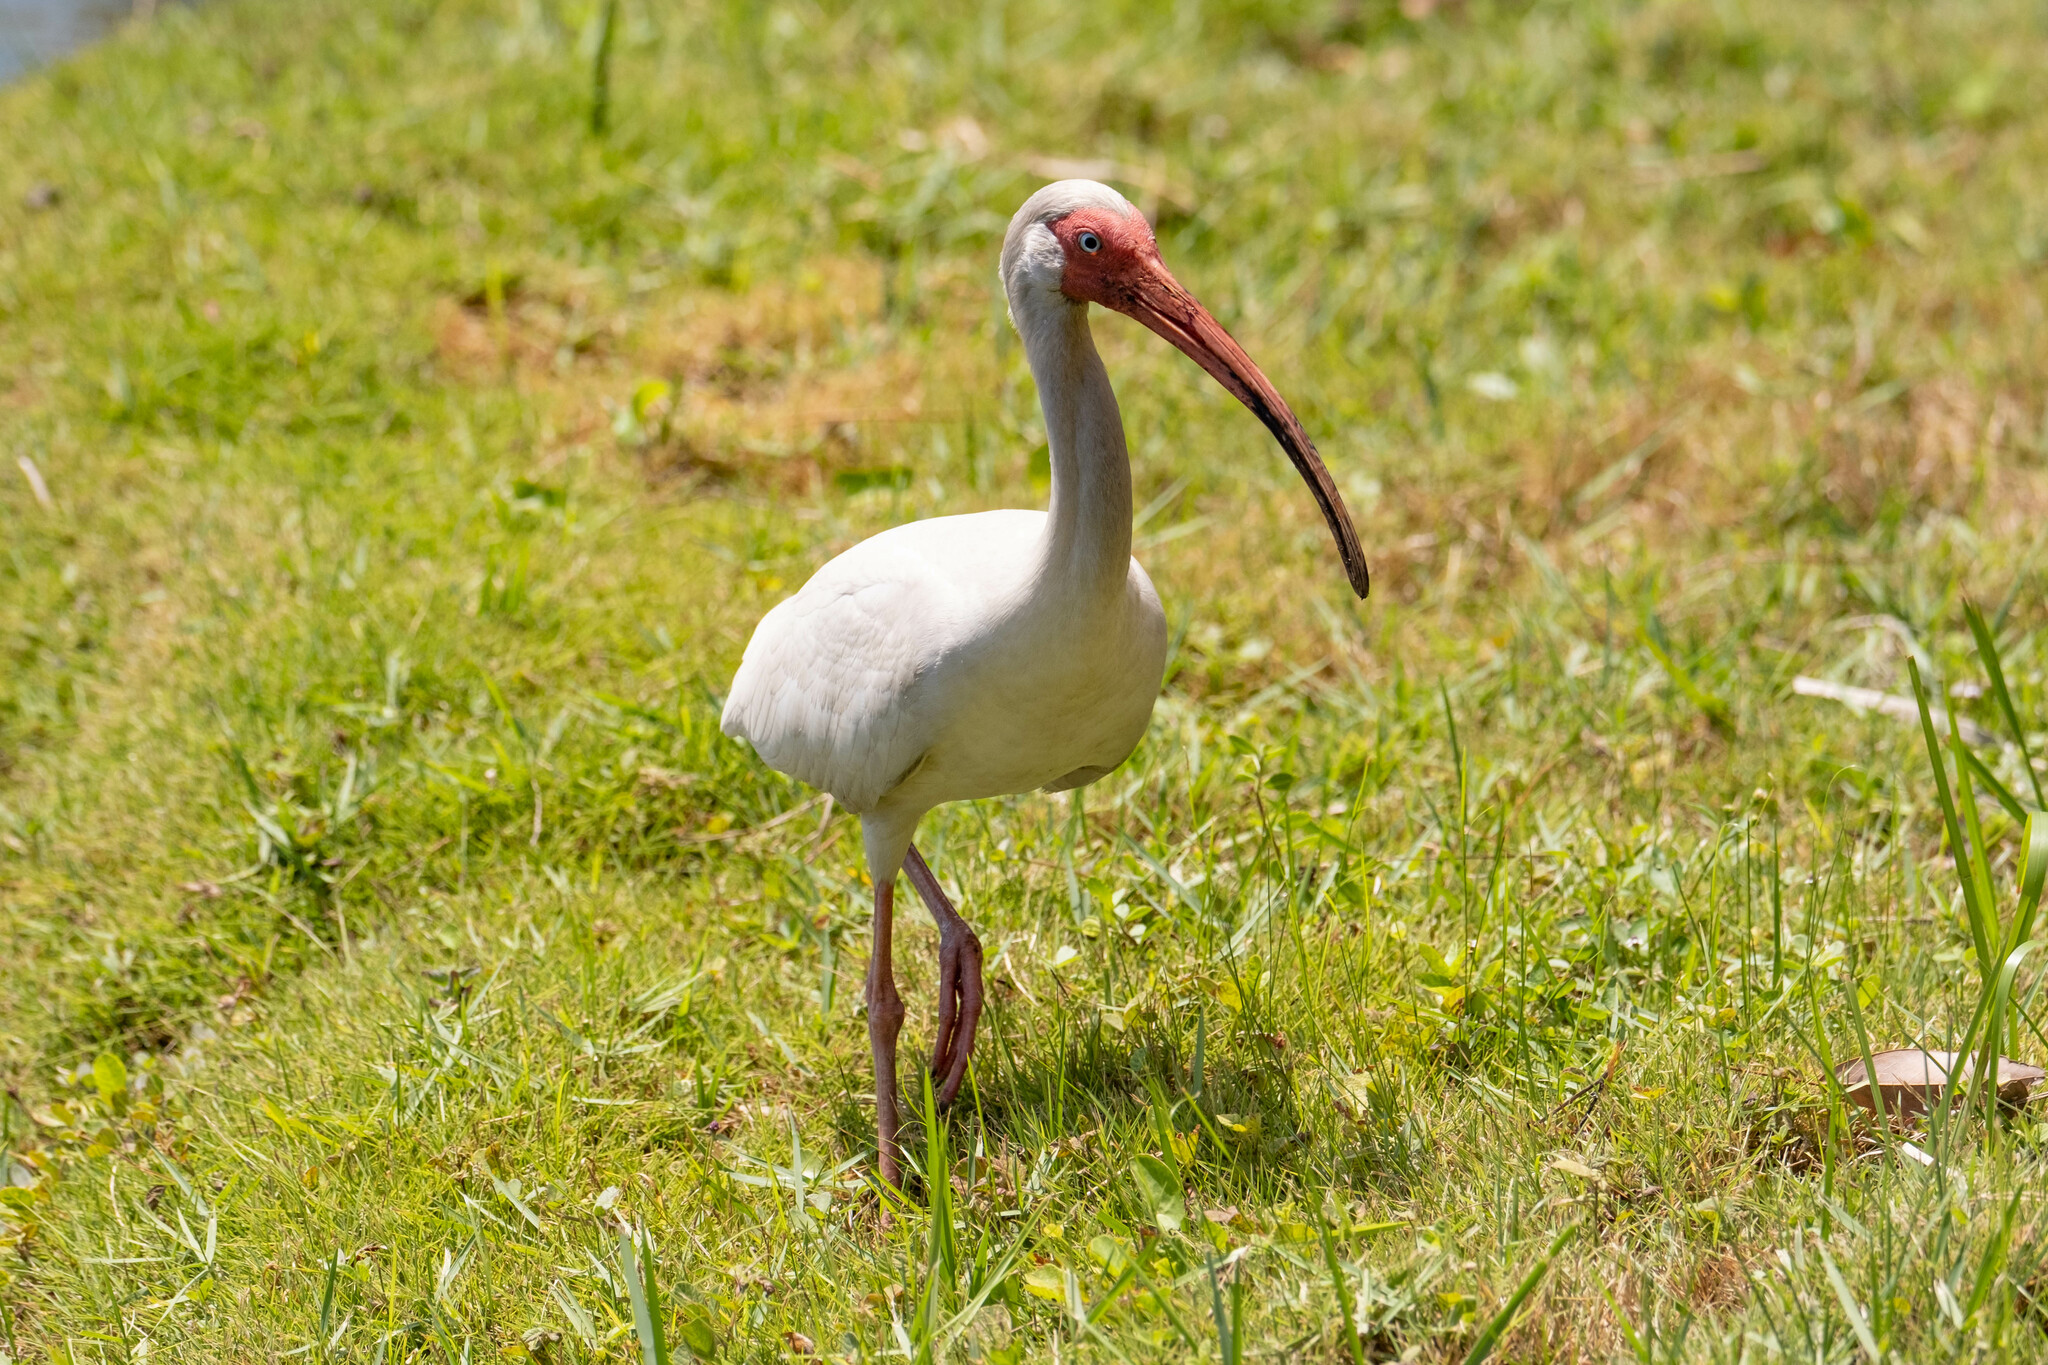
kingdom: Animalia
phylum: Chordata
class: Aves
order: Pelecaniformes
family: Threskiornithidae
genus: Eudocimus
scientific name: Eudocimus albus
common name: White ibis
